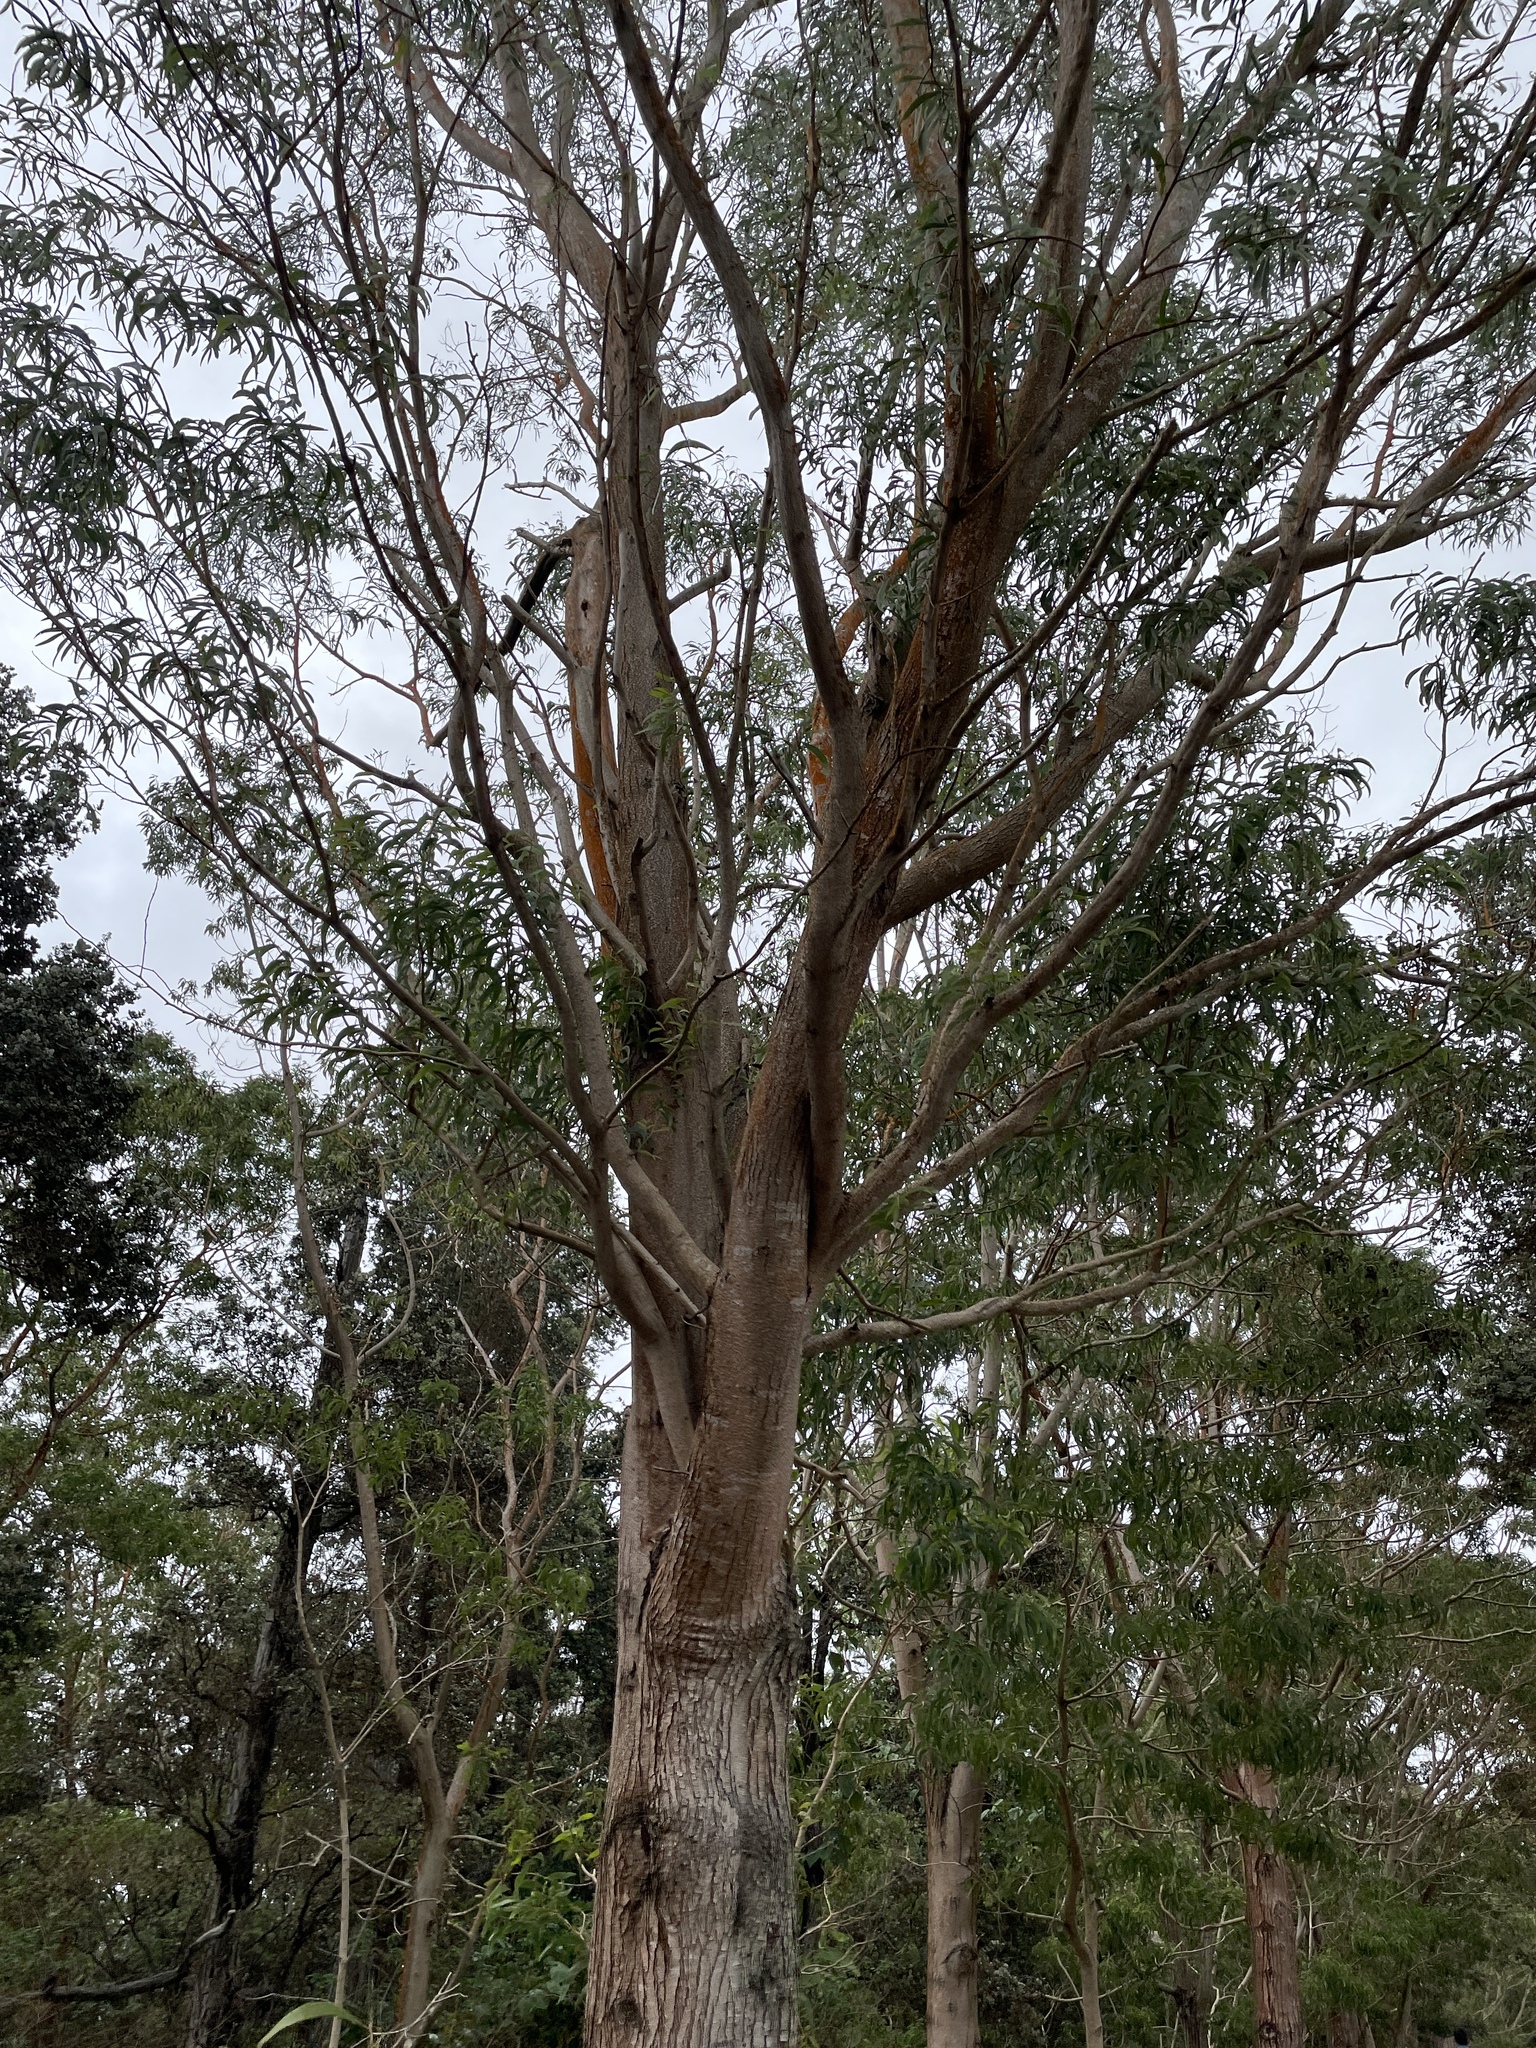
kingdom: Plantae
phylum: Tracheophyta
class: Magnoliopsida
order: Fabales
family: Fabaceae
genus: Acacia
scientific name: Acacia koa
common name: Gray koa
